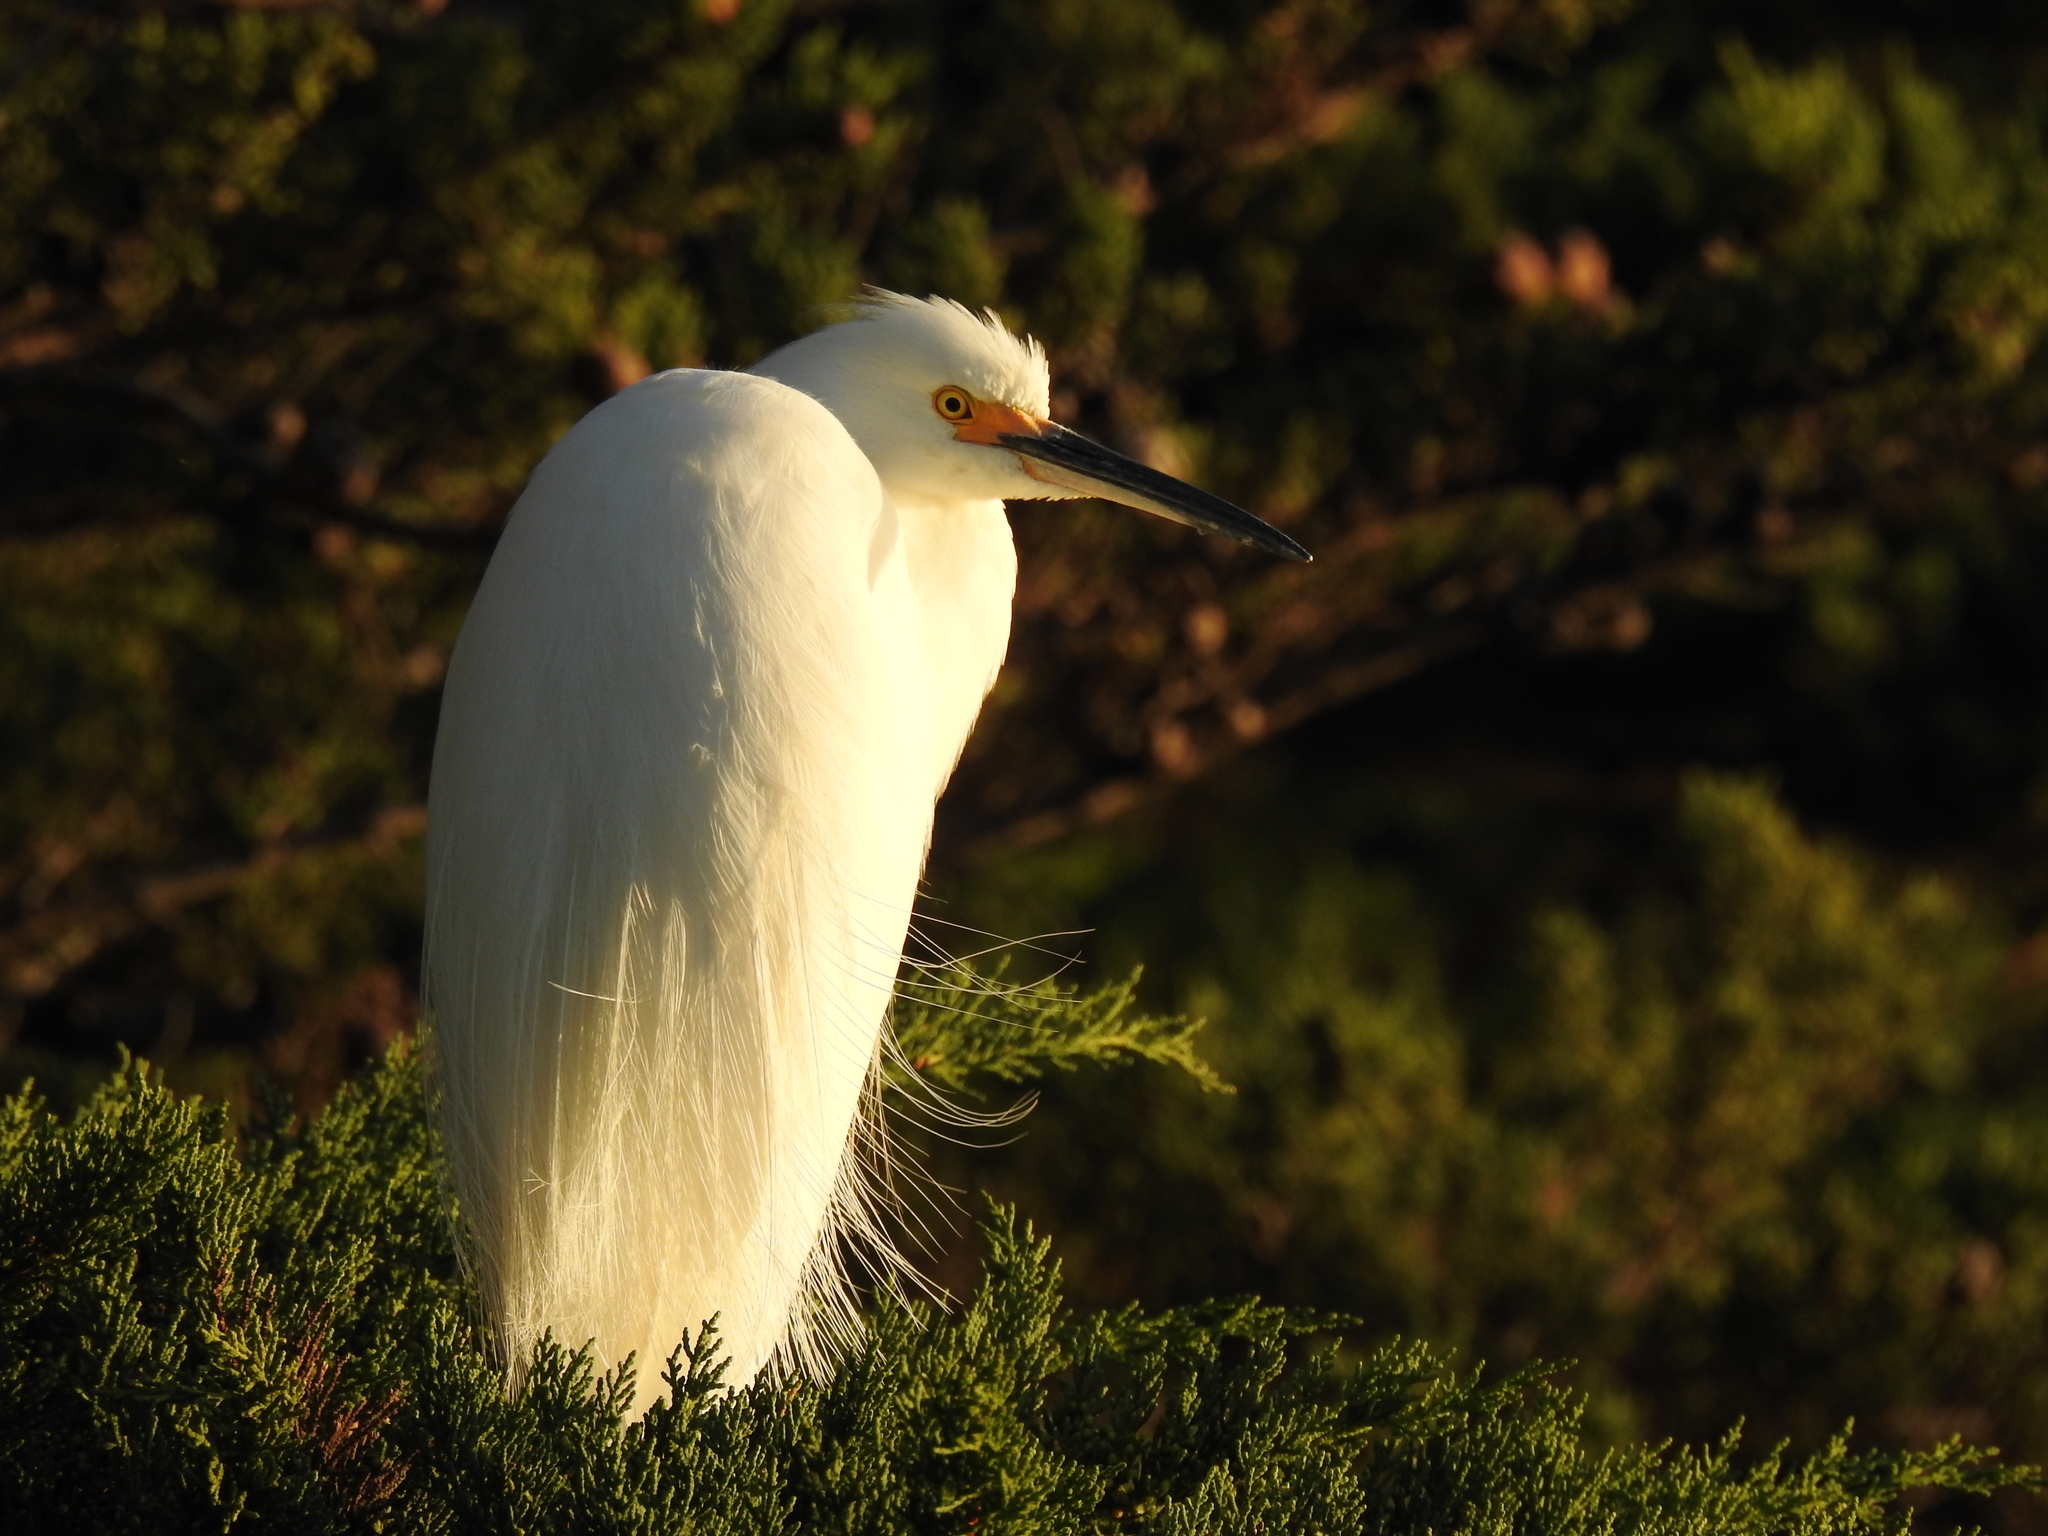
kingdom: Animalia
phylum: Chordata
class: Aves
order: Pelecaniformes
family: Ardeidae
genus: Egretta
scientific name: Egretta thula
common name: Snowy egret
